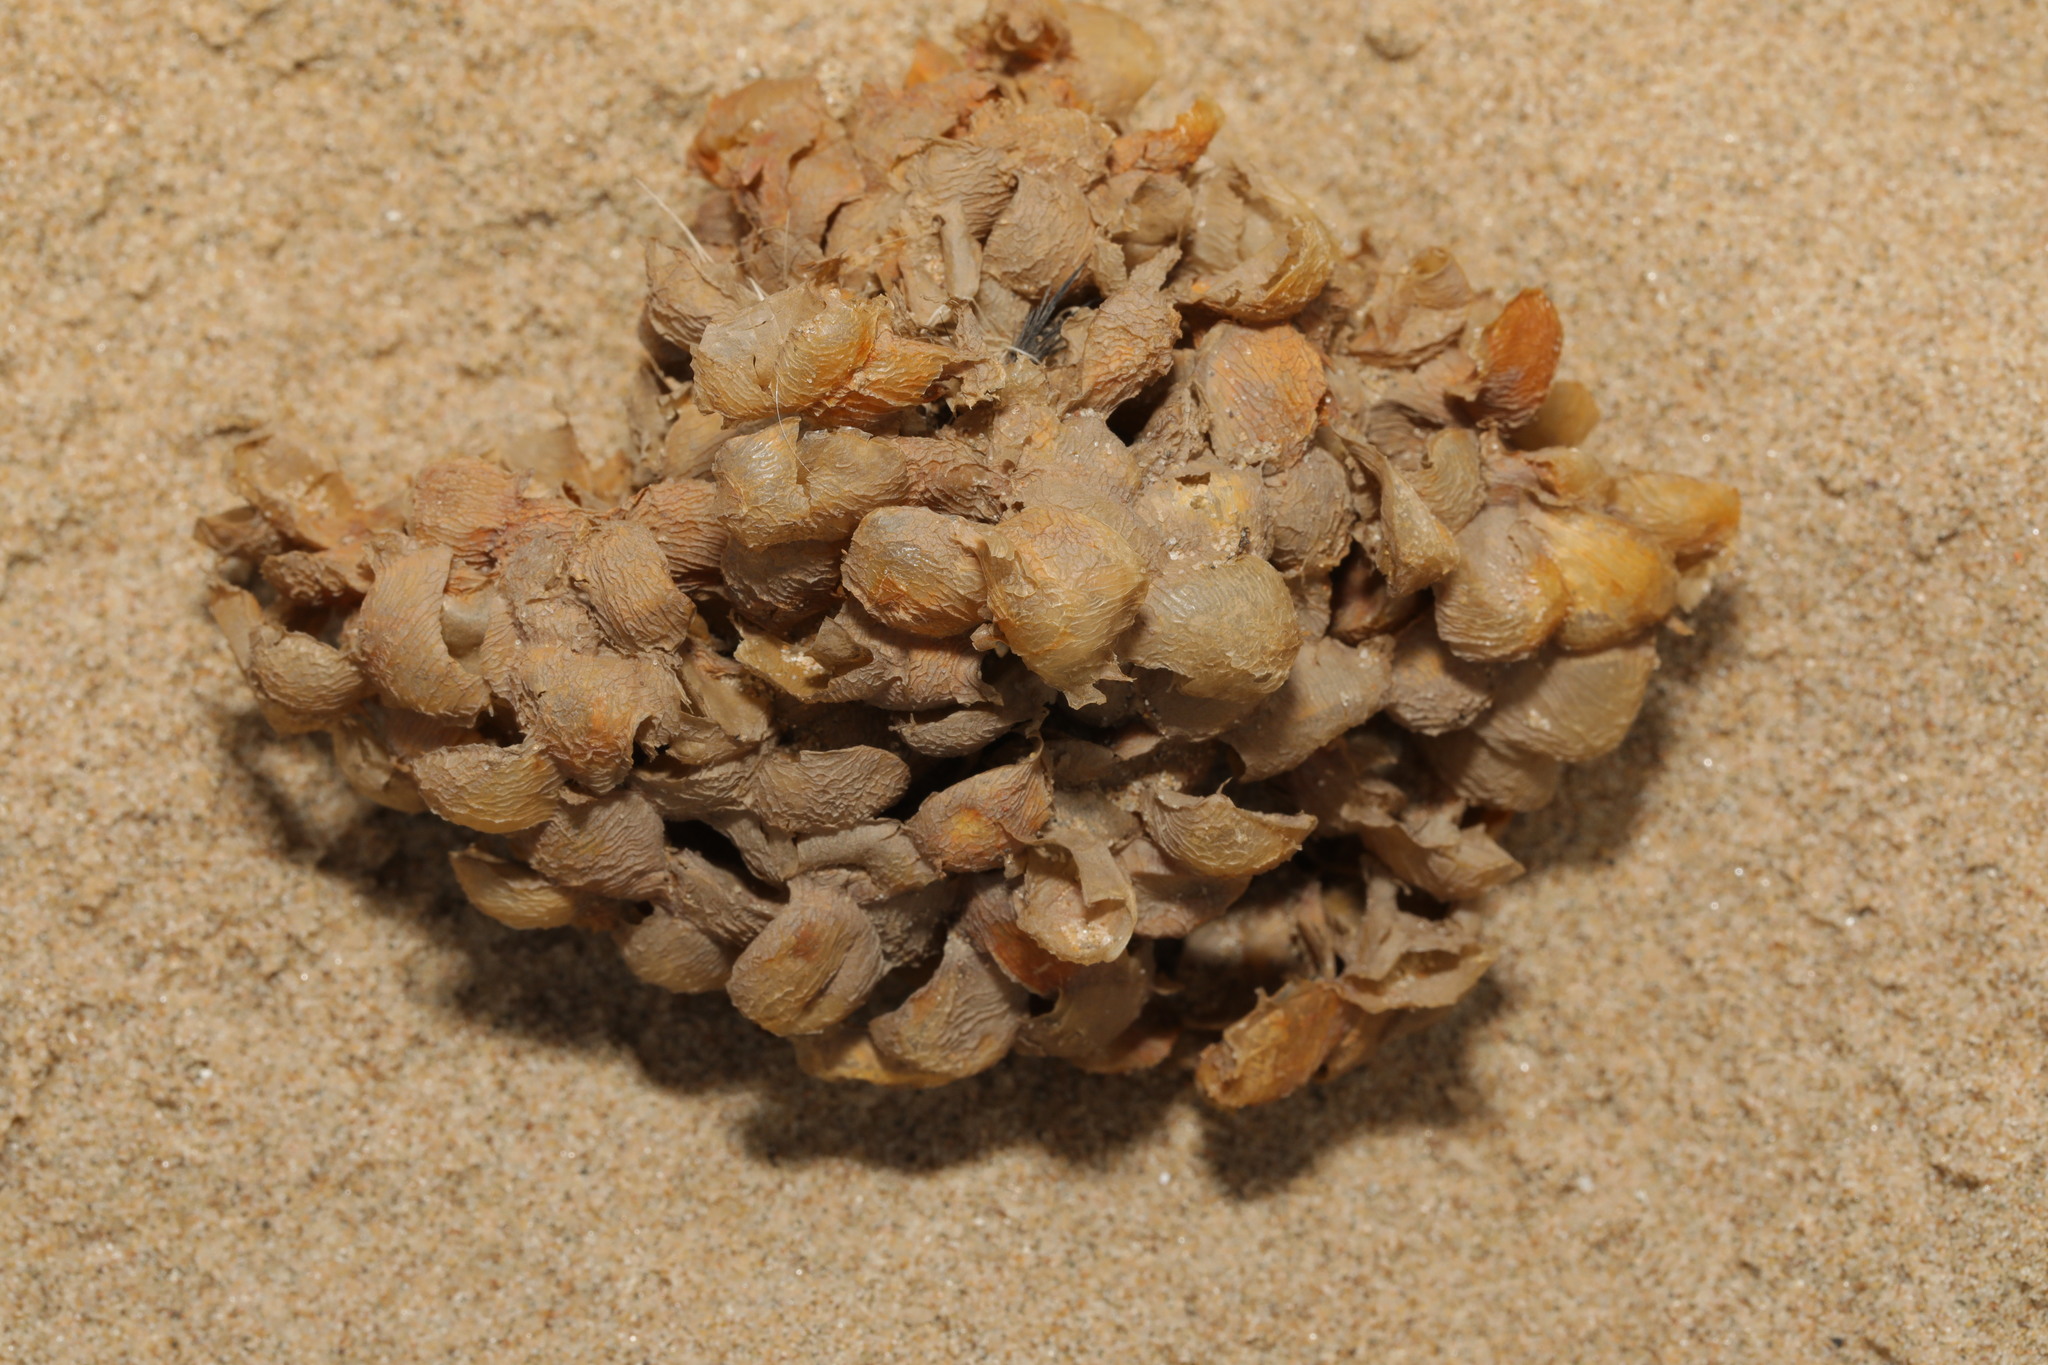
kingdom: Animalia
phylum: Mollusca
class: Gastropoda
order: Neogastropoda
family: Buccinidae
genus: Buccinum
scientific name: Buccinum undatum
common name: Common whelk
